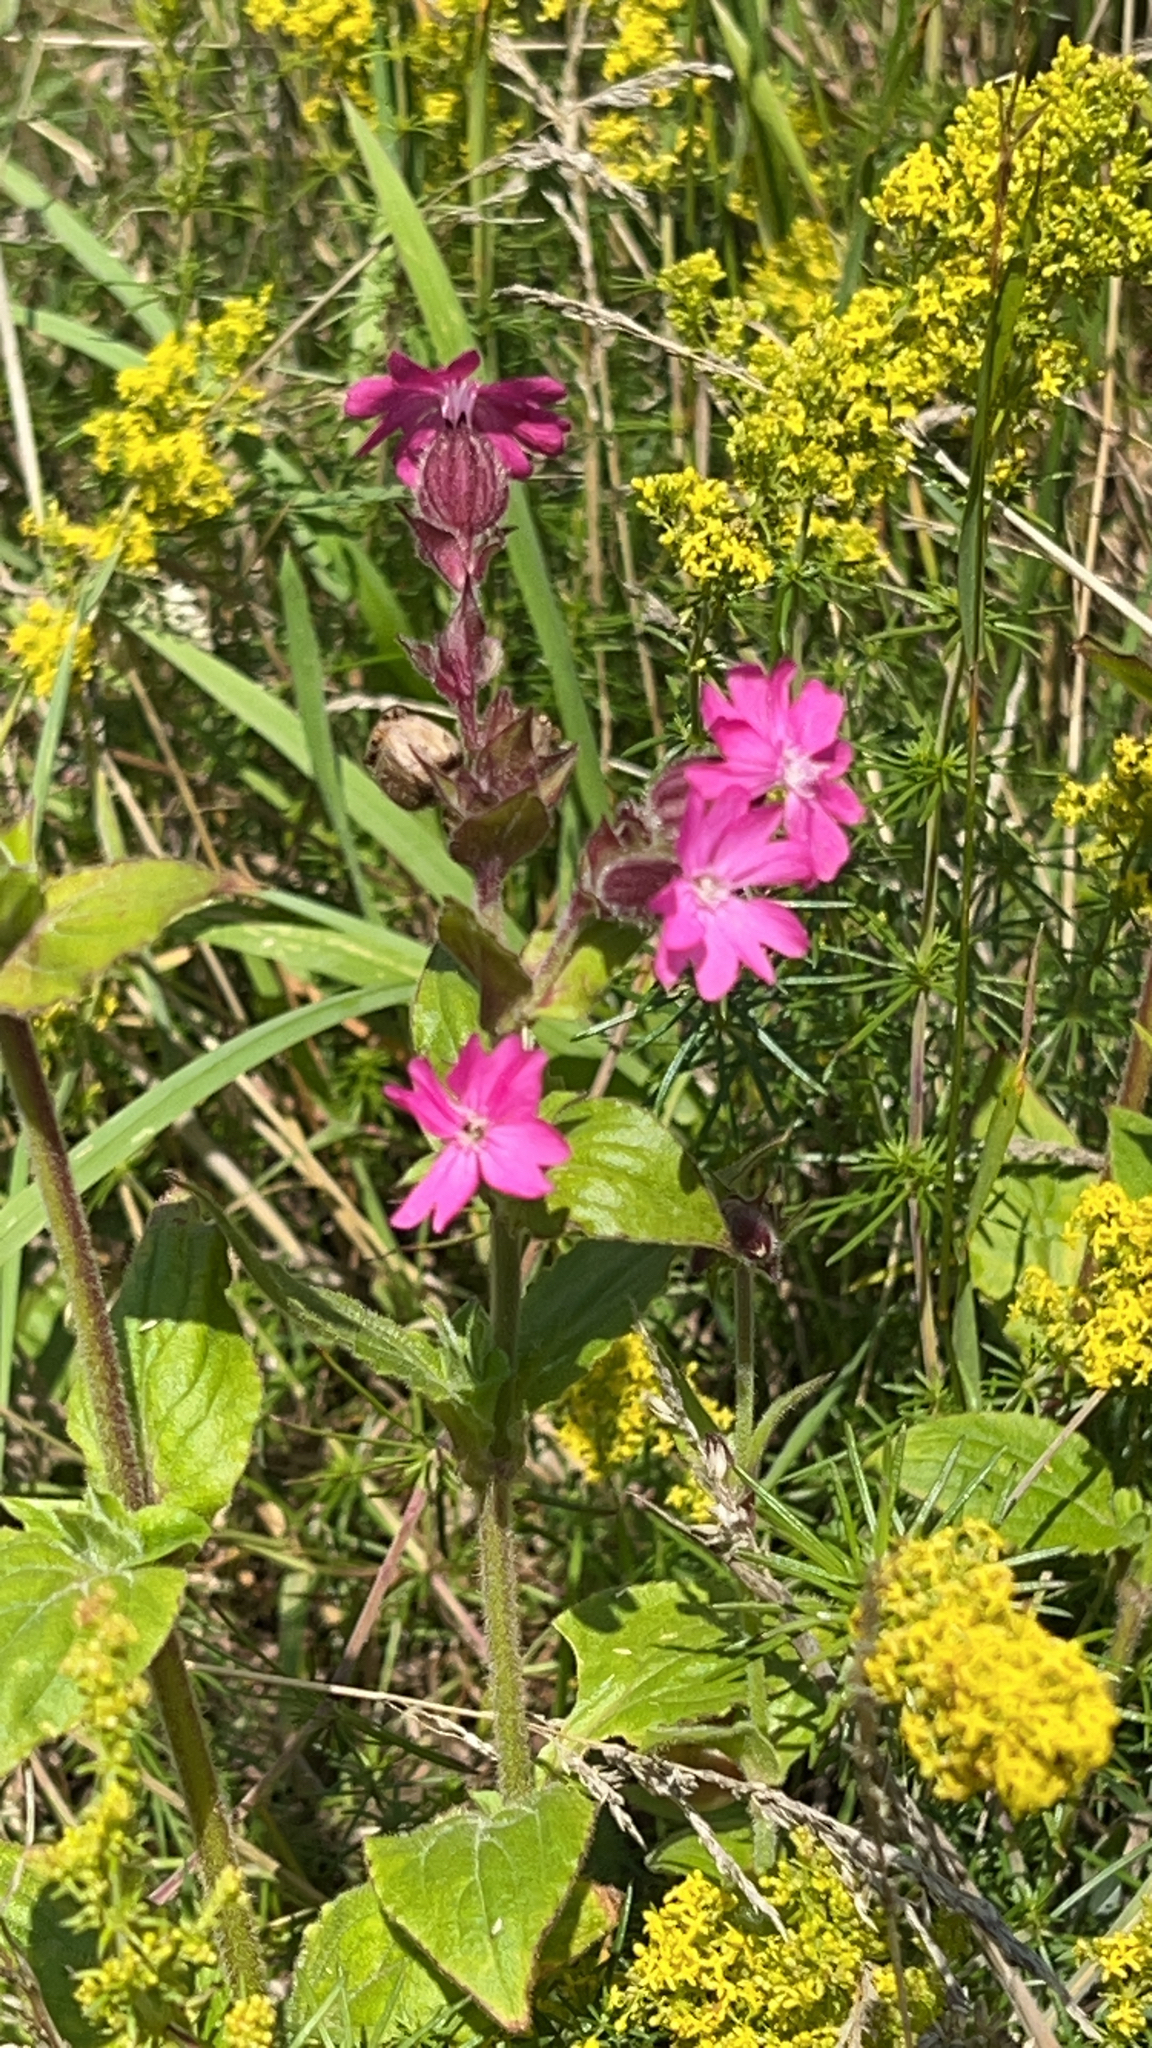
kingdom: Plantae
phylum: Tracheophyta
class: Magnoliopsida
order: Caryophyllales
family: Caryophyllaceae
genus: Silene
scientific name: Silene dioica
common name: Red campion
